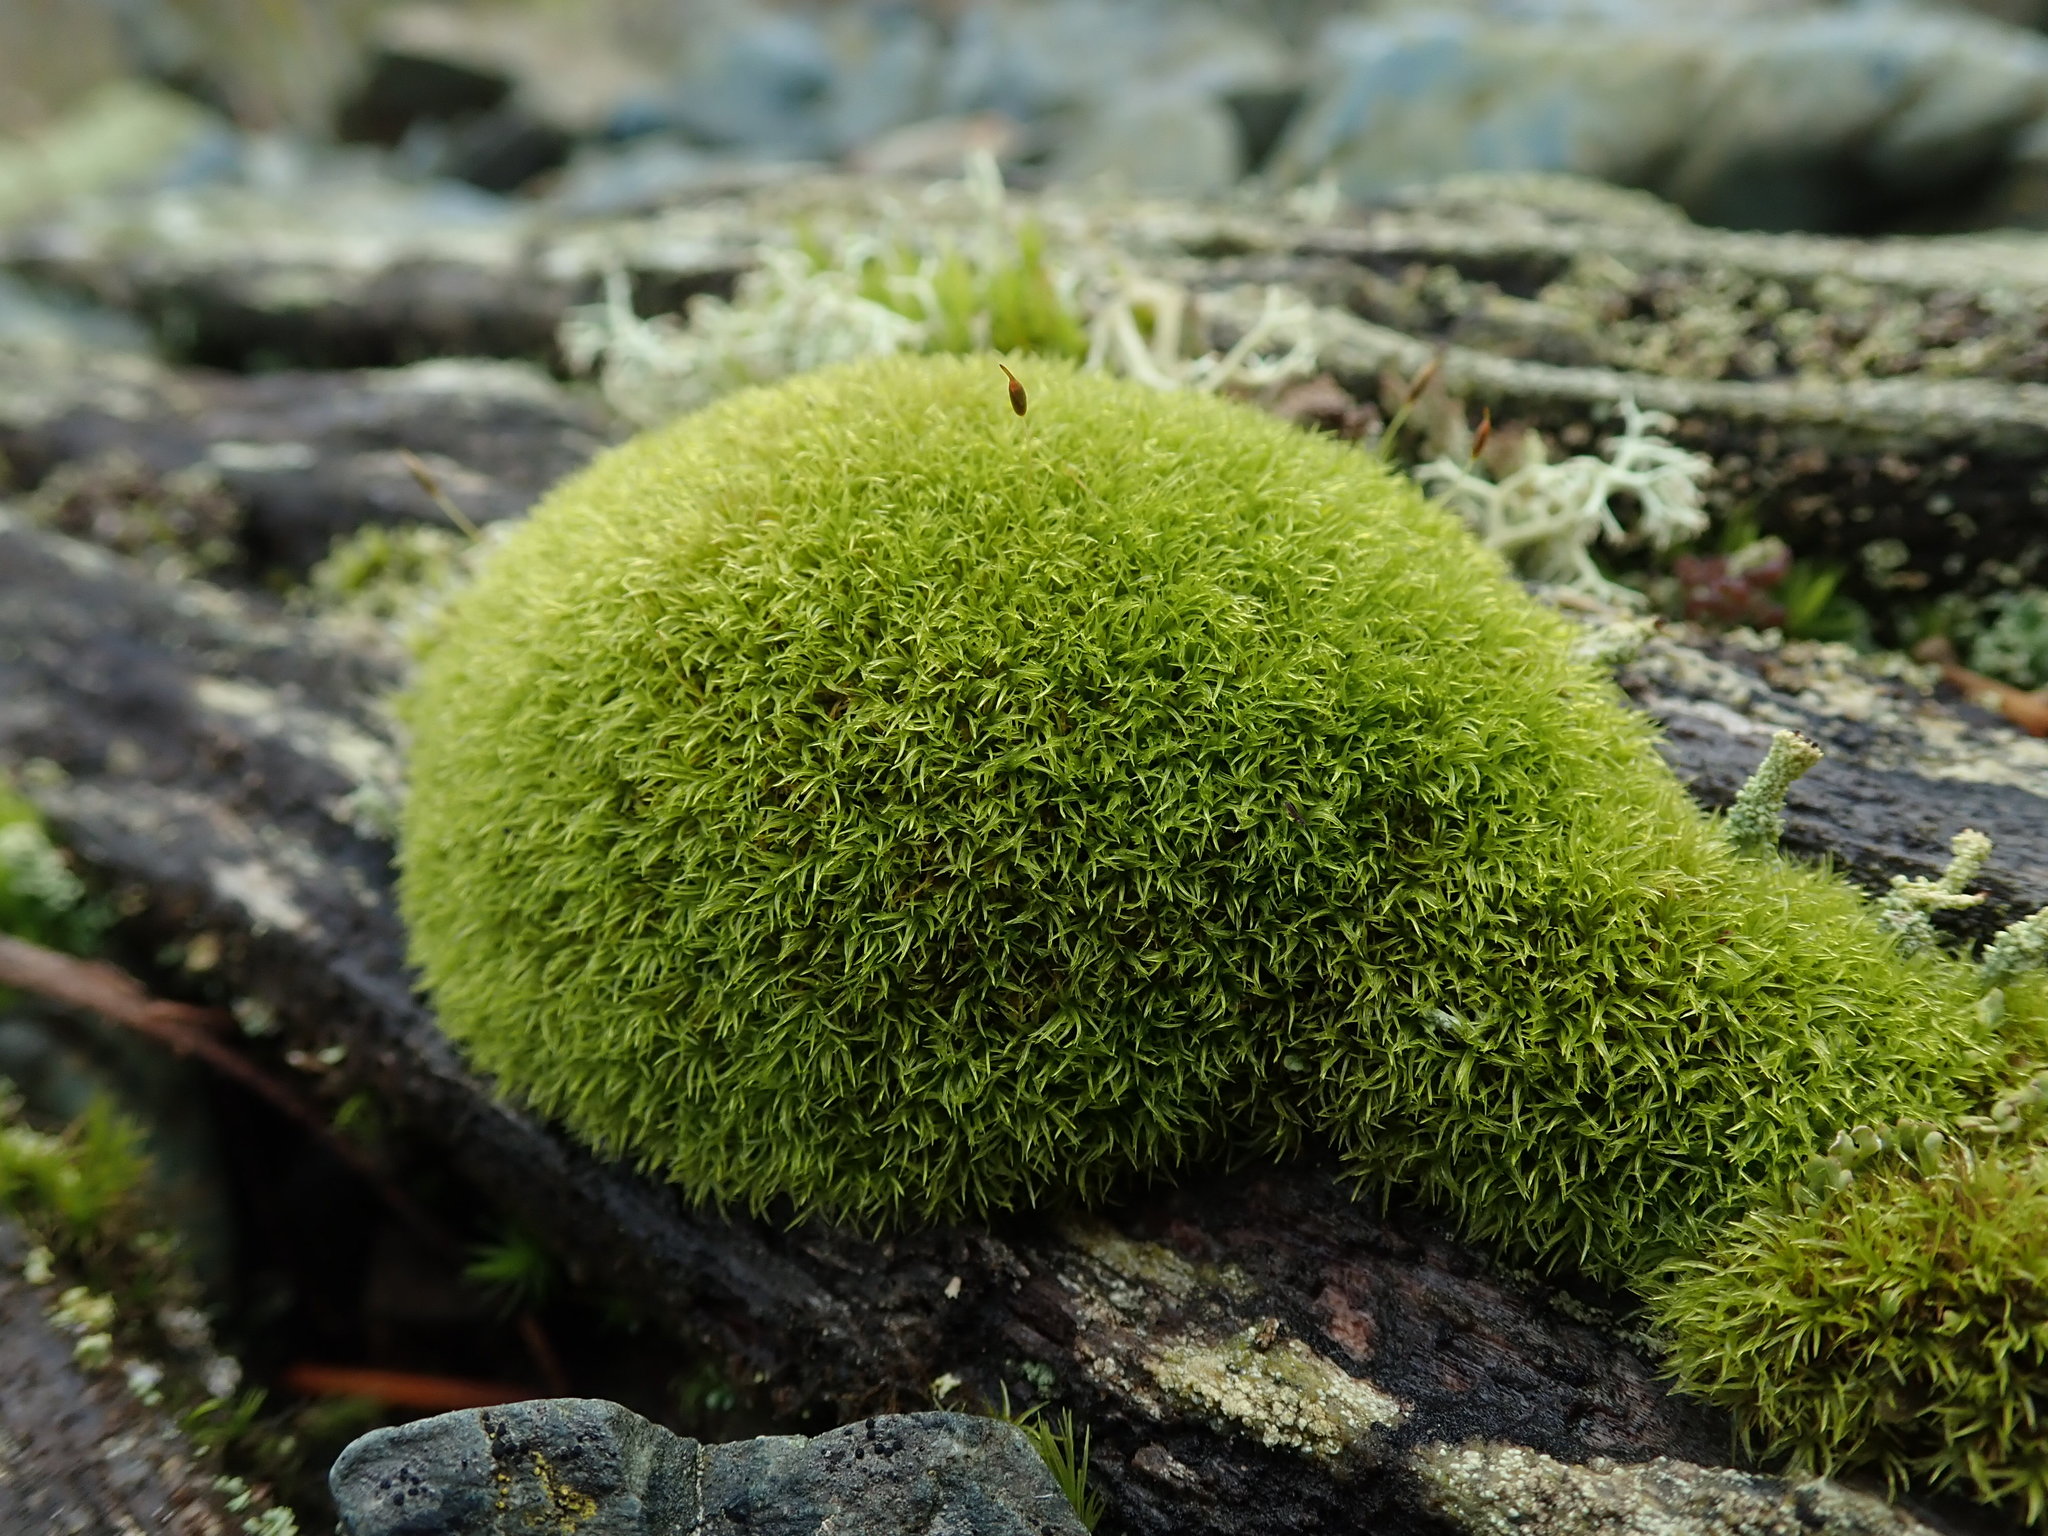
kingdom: Plantae
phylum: Bryophyta
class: Bryopsida
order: Dicranales
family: Rhabdoweisiaceae
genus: Dicranoweisia
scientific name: Dicranoweisia cirrata
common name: Common pincushion
